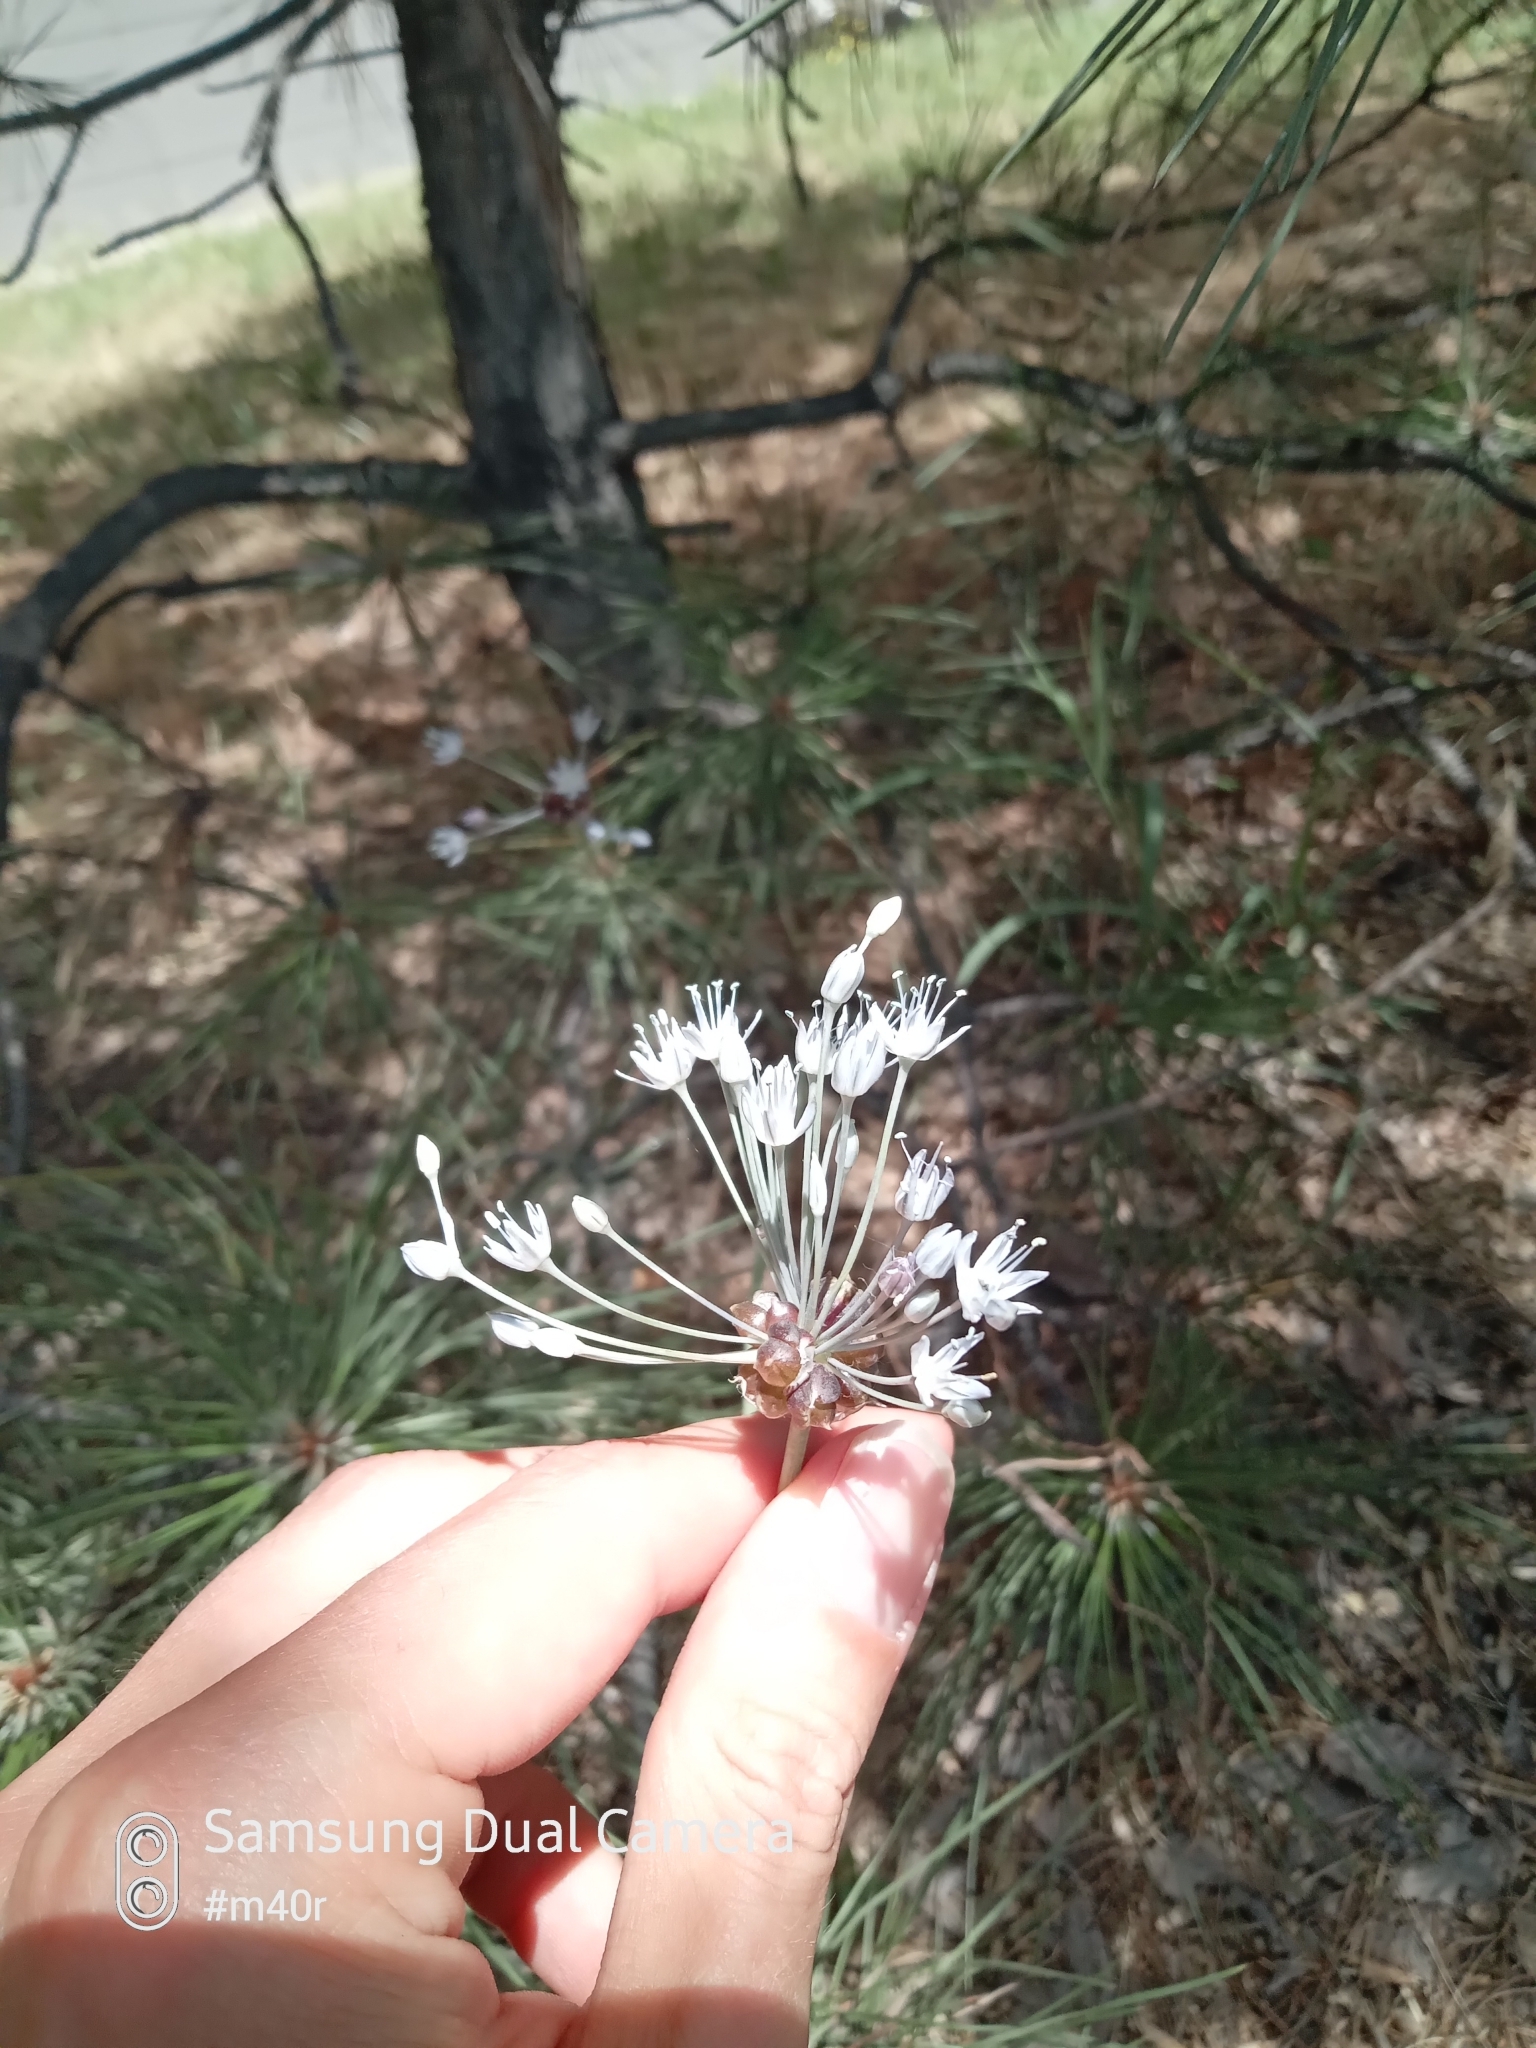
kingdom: Plantae
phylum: Tracheophyta
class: Liliopsida
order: Asparagales
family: Amaryllidaceae
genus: Allium
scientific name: Allium caeruleum
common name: Blue-of-the-heavens
